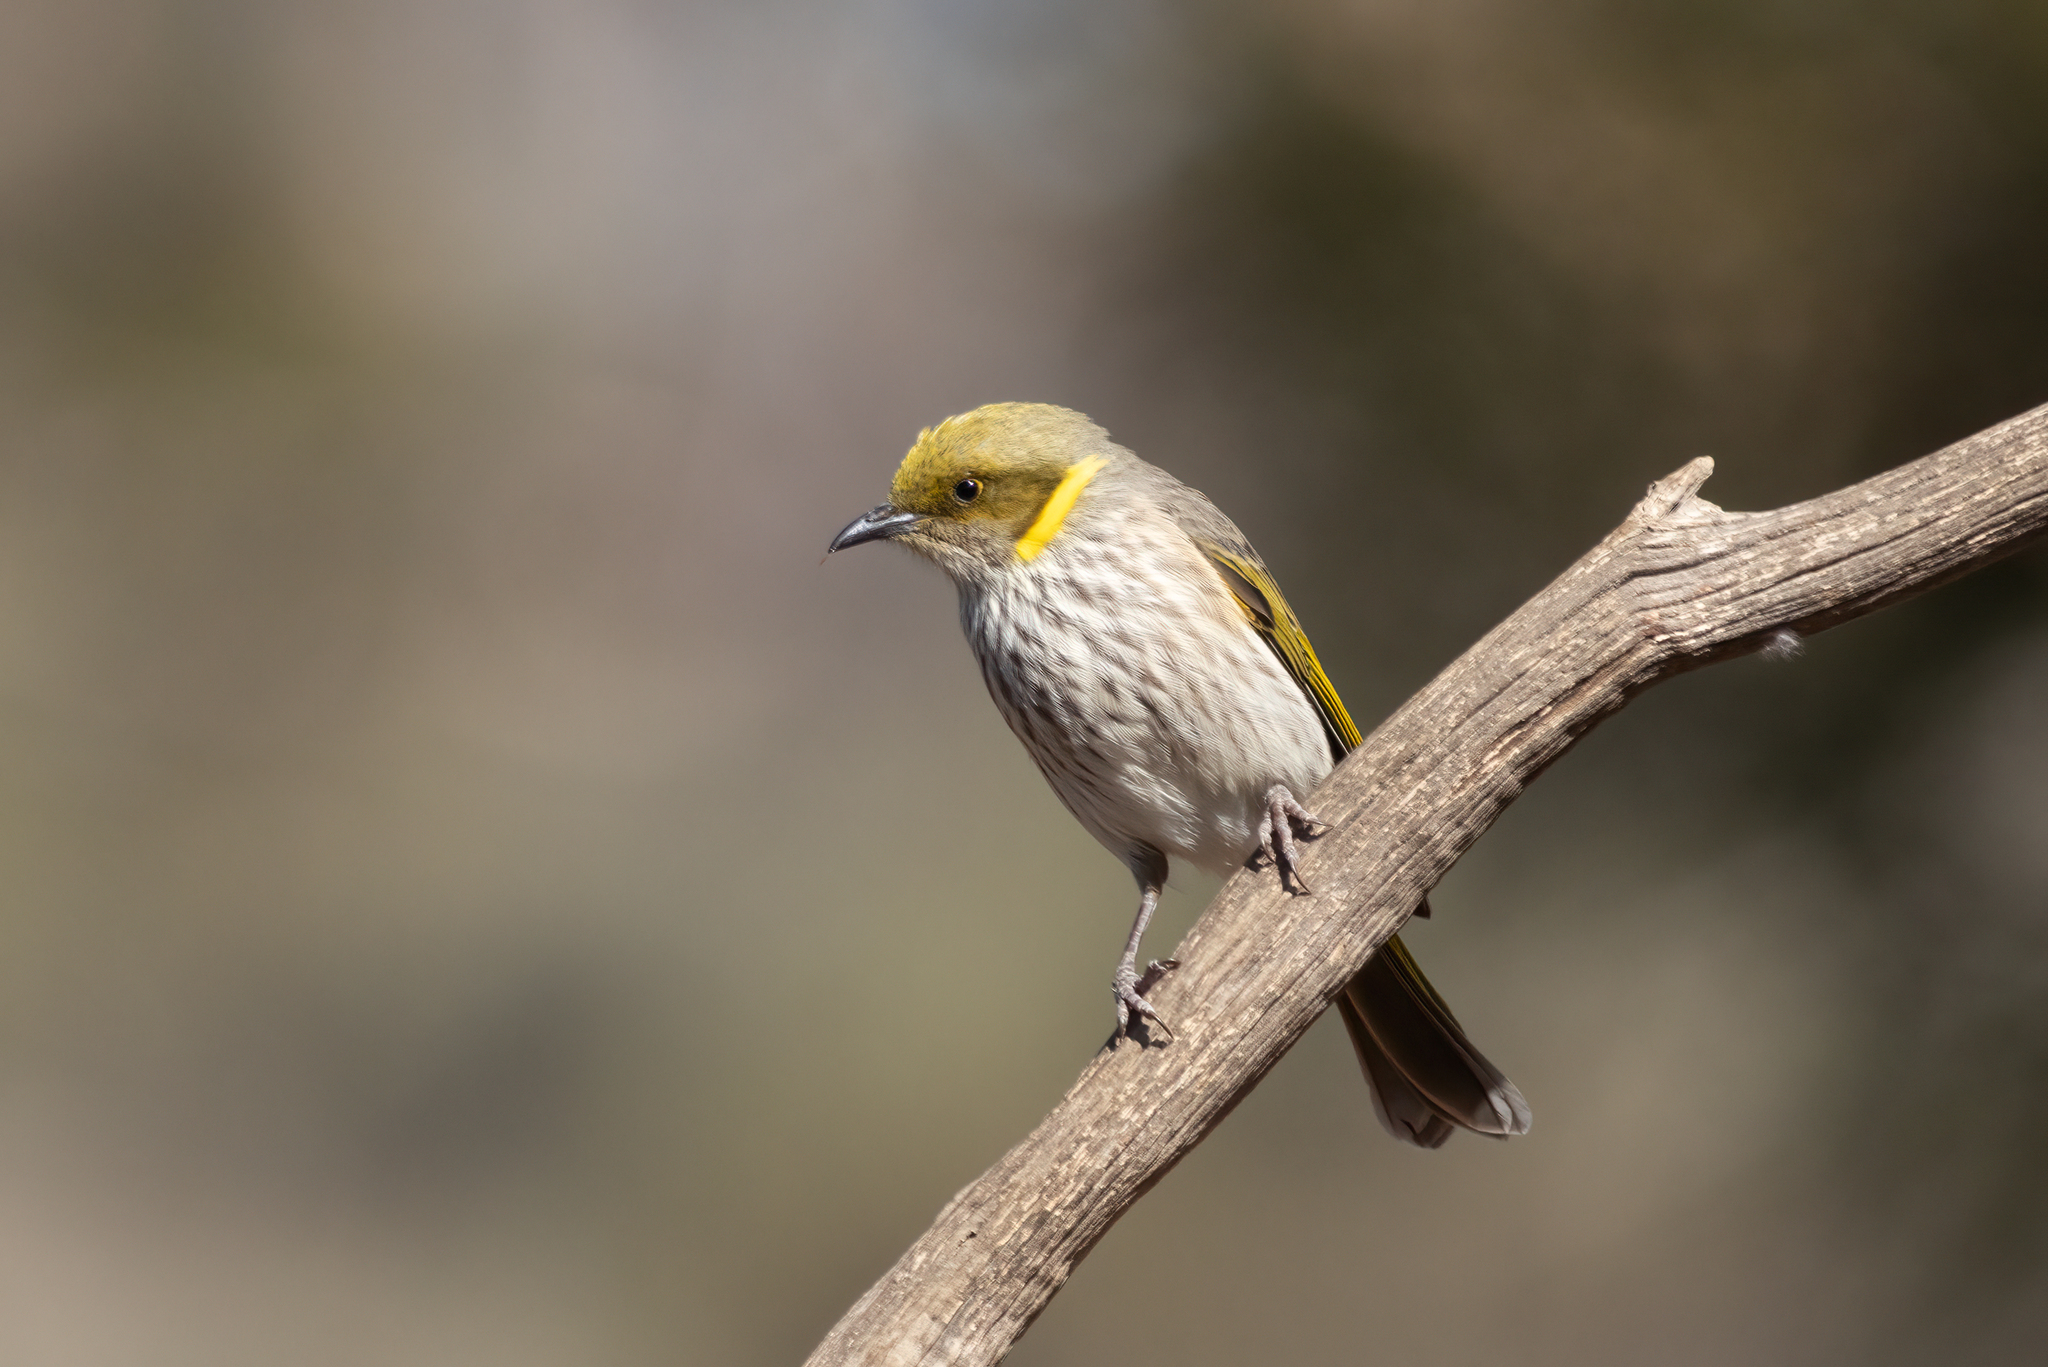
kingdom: Animalia
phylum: Chordata
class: Aves
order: Passeriformes
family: Meliphagidae
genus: Ptilotula
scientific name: Ptilotula ornata
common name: Yellow-plumed honeyeater
